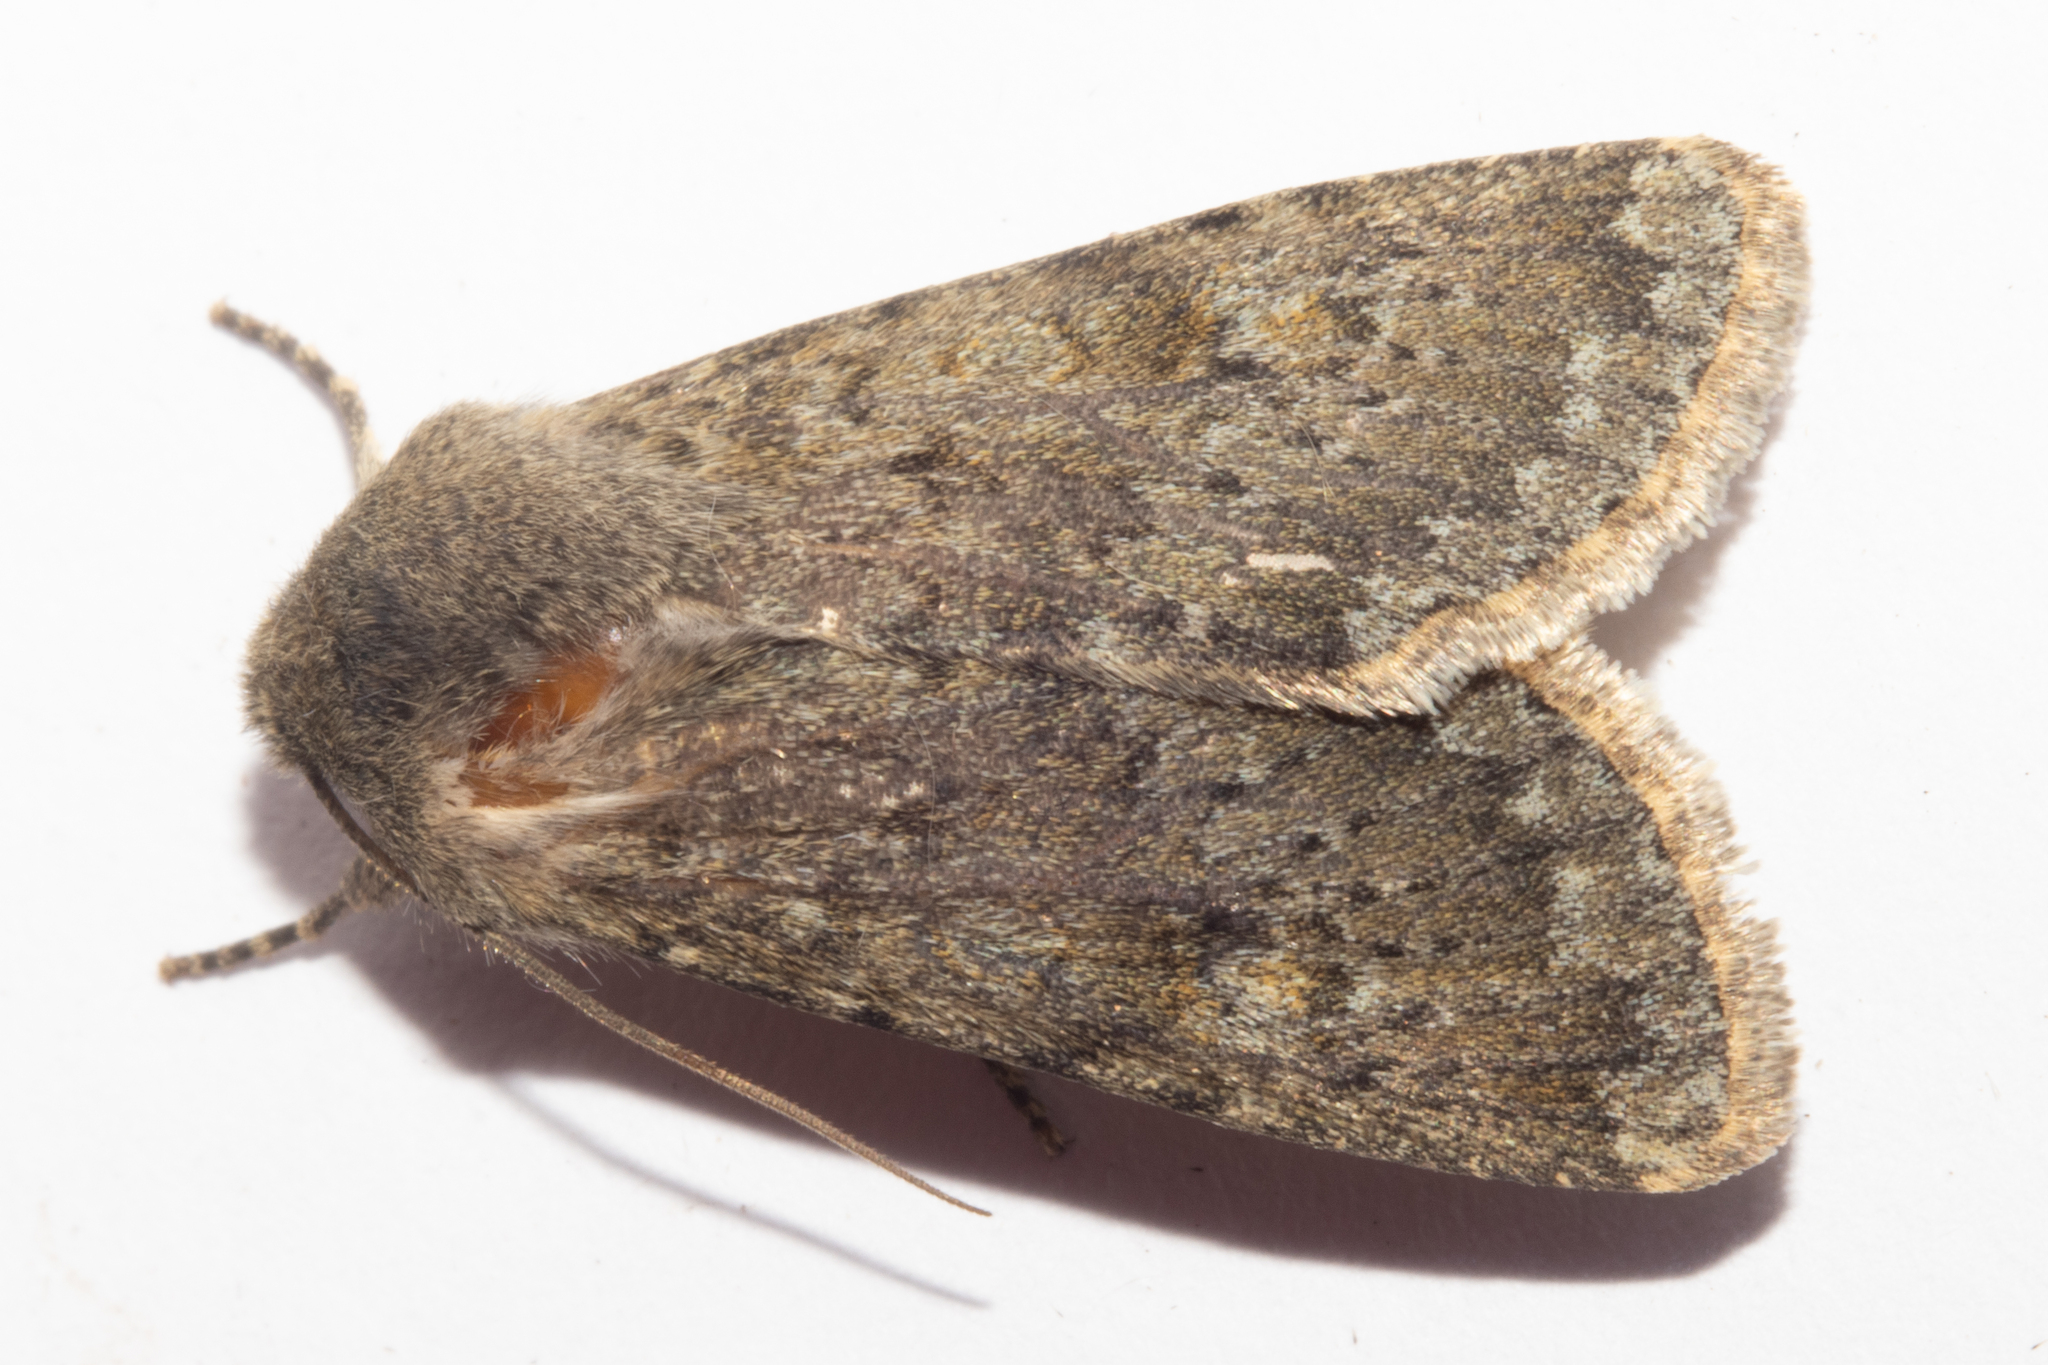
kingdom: Animalia
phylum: Arthropoda
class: Insecta
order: Lepidoptera
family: Noctuidae
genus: Ichneutica
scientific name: Ichneutica moderata
